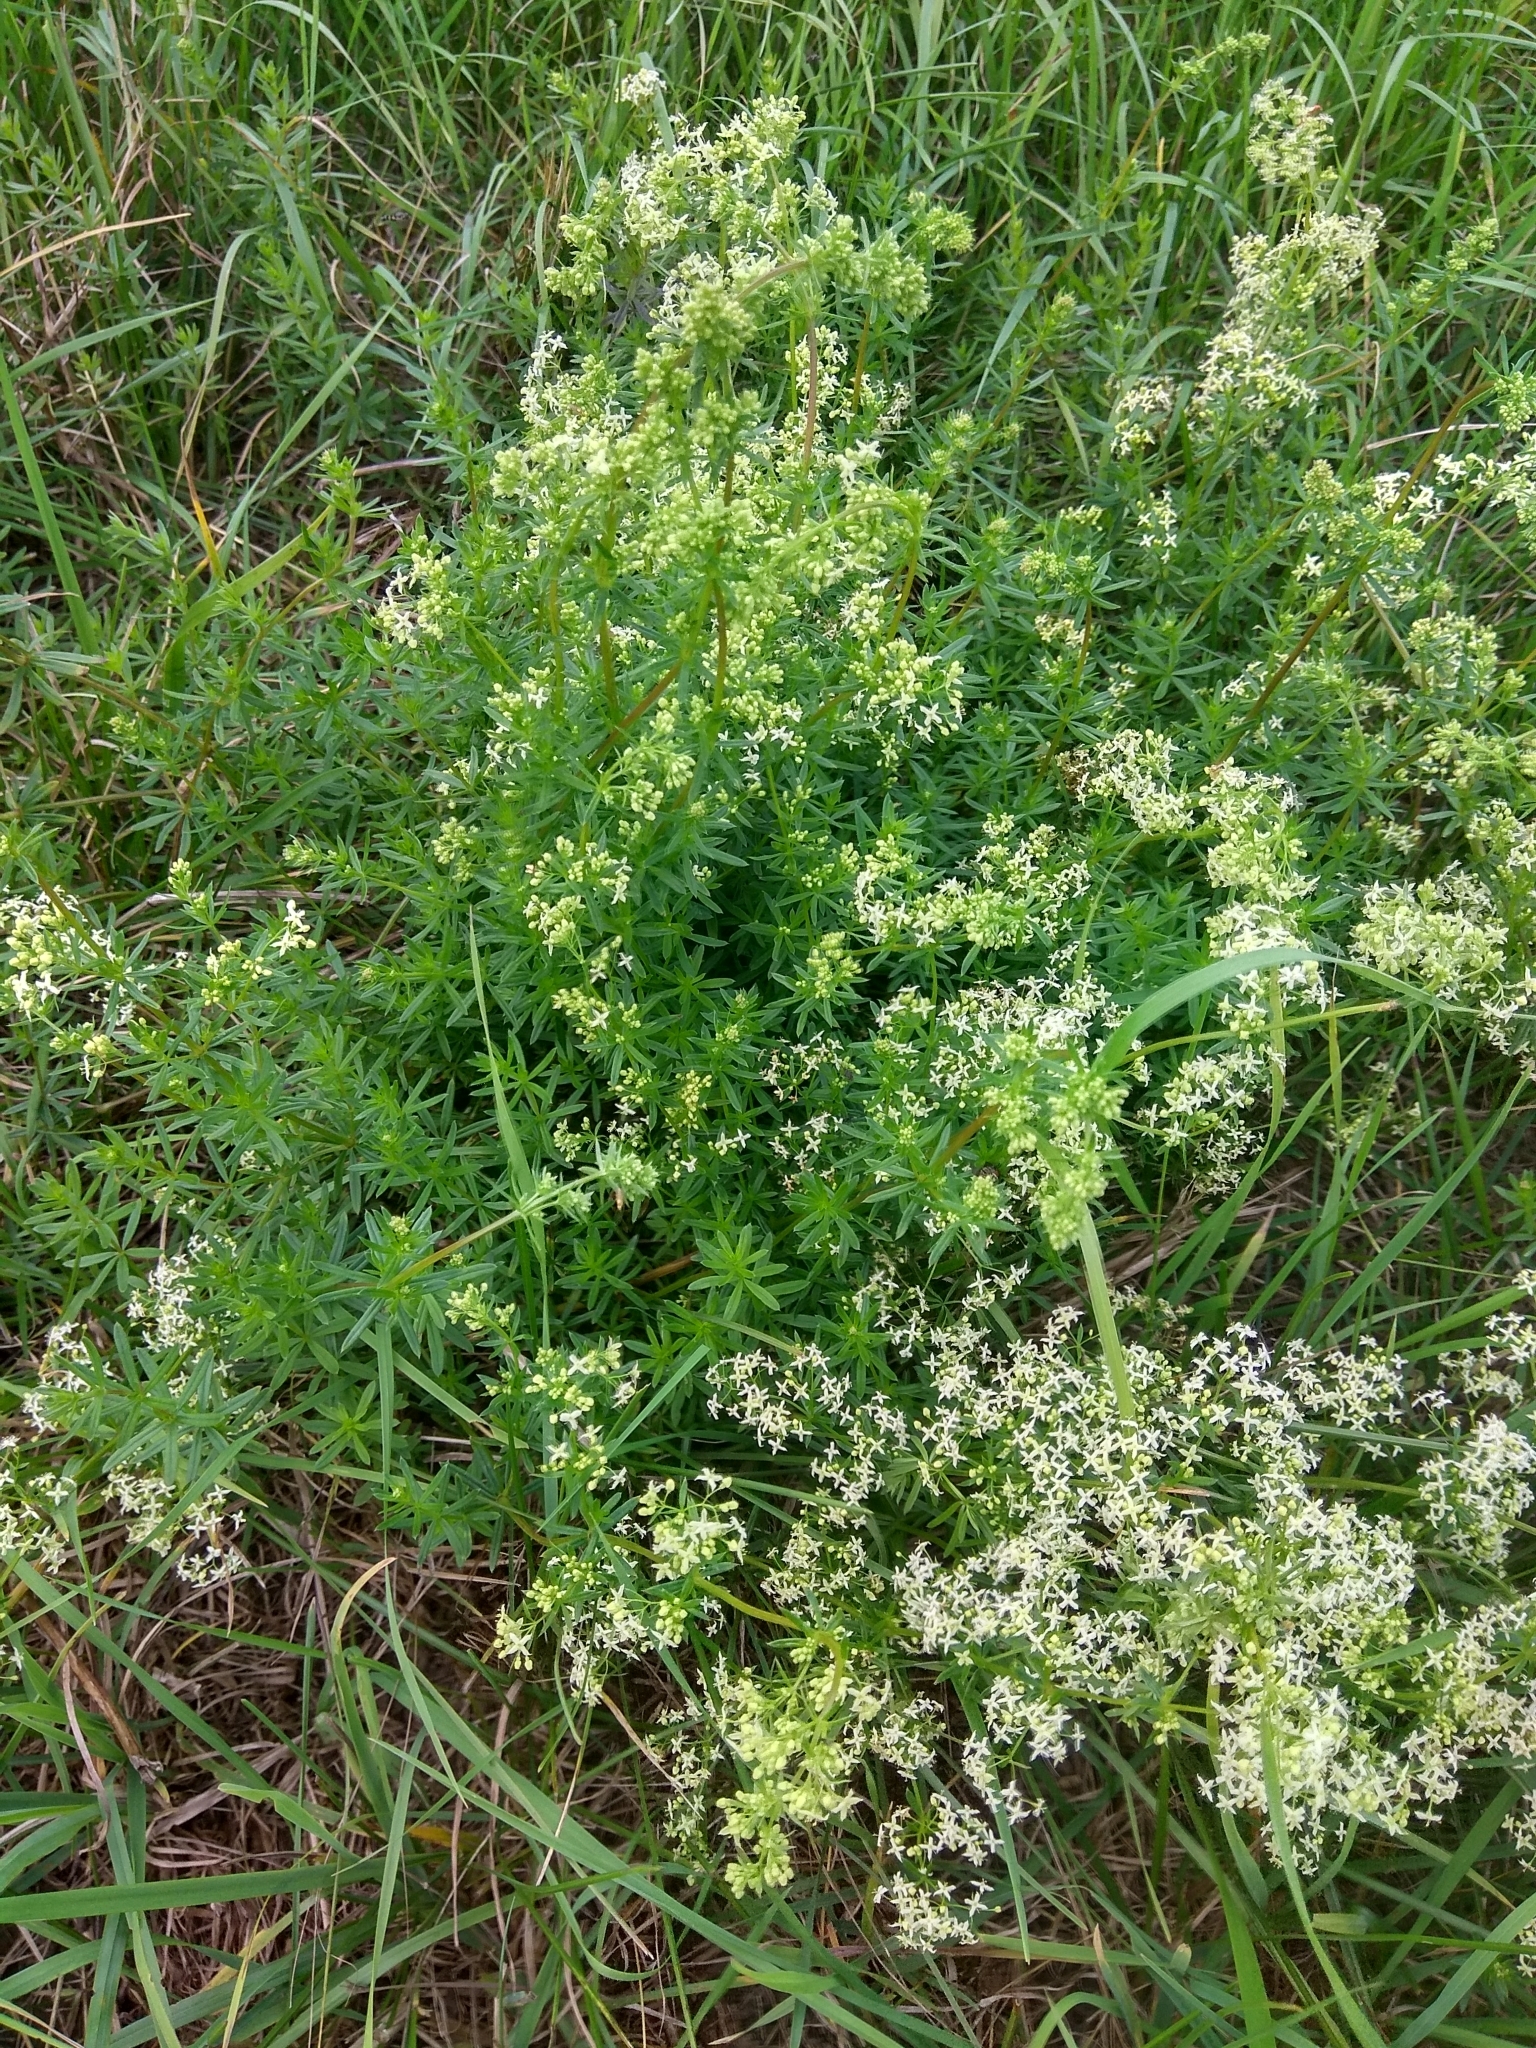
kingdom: Plantae
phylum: Tracheophyta
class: Magnoliopsida
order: Gentianales
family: Rubiaceae
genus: Galium
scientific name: Galium mollugo
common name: Hedge bedstraw
